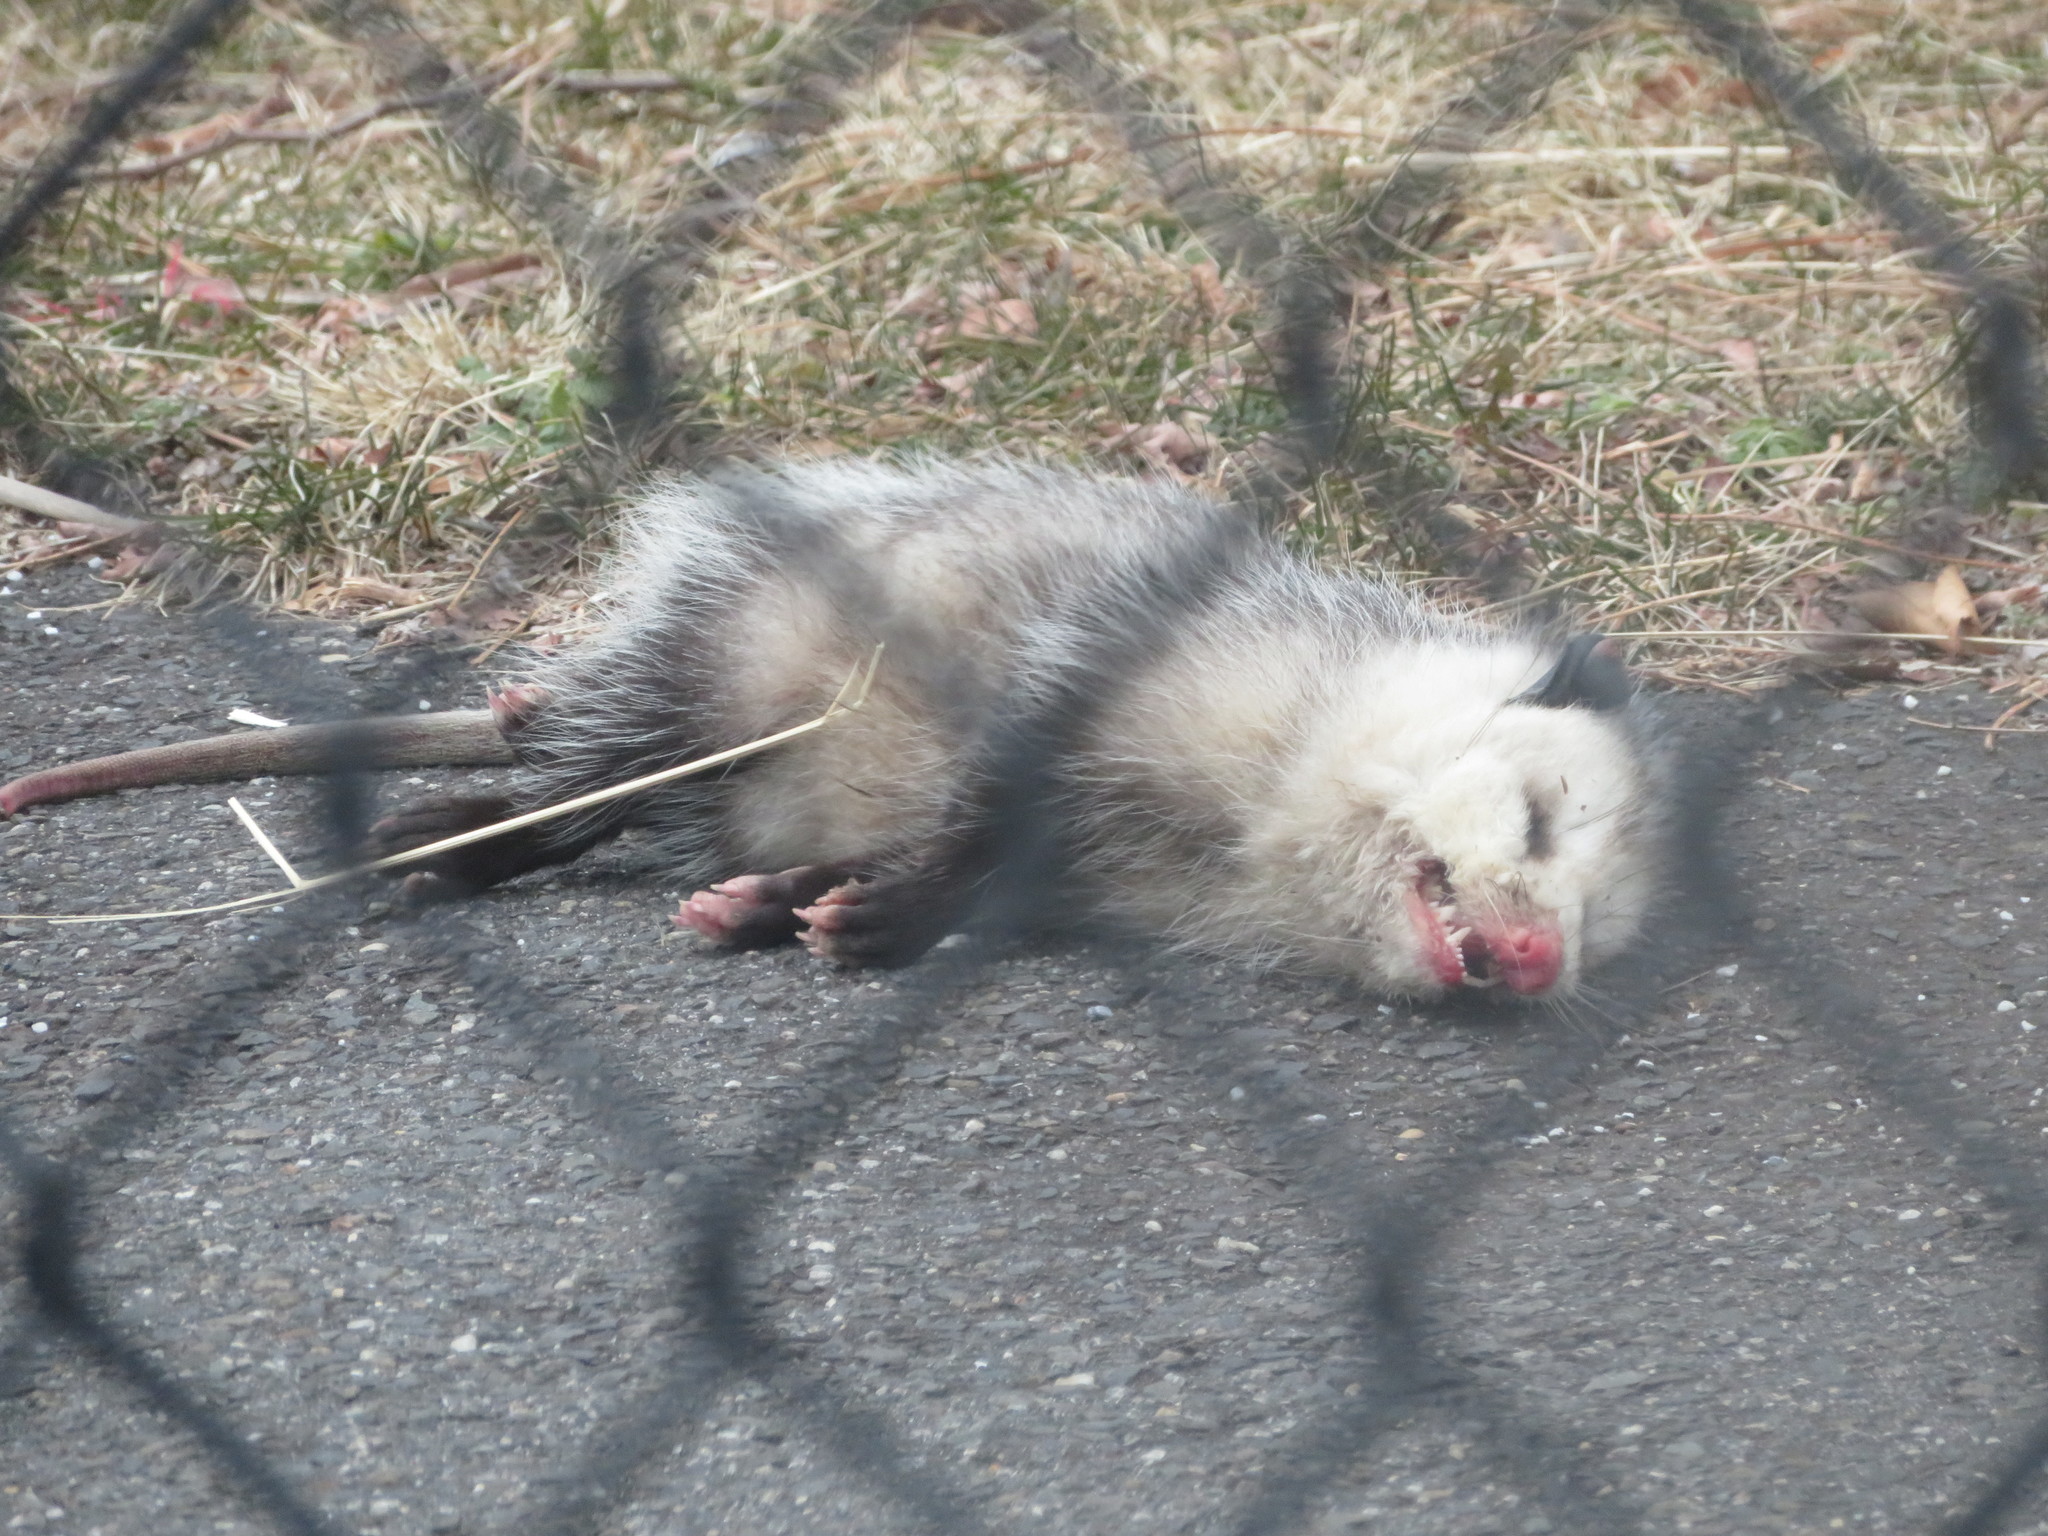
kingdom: Animalia
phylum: Chordata
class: Mammalia
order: Didelphimorphia
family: Didelphidae
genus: Didelphis
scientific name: Didelphis virginiana
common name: Virginia opossum
